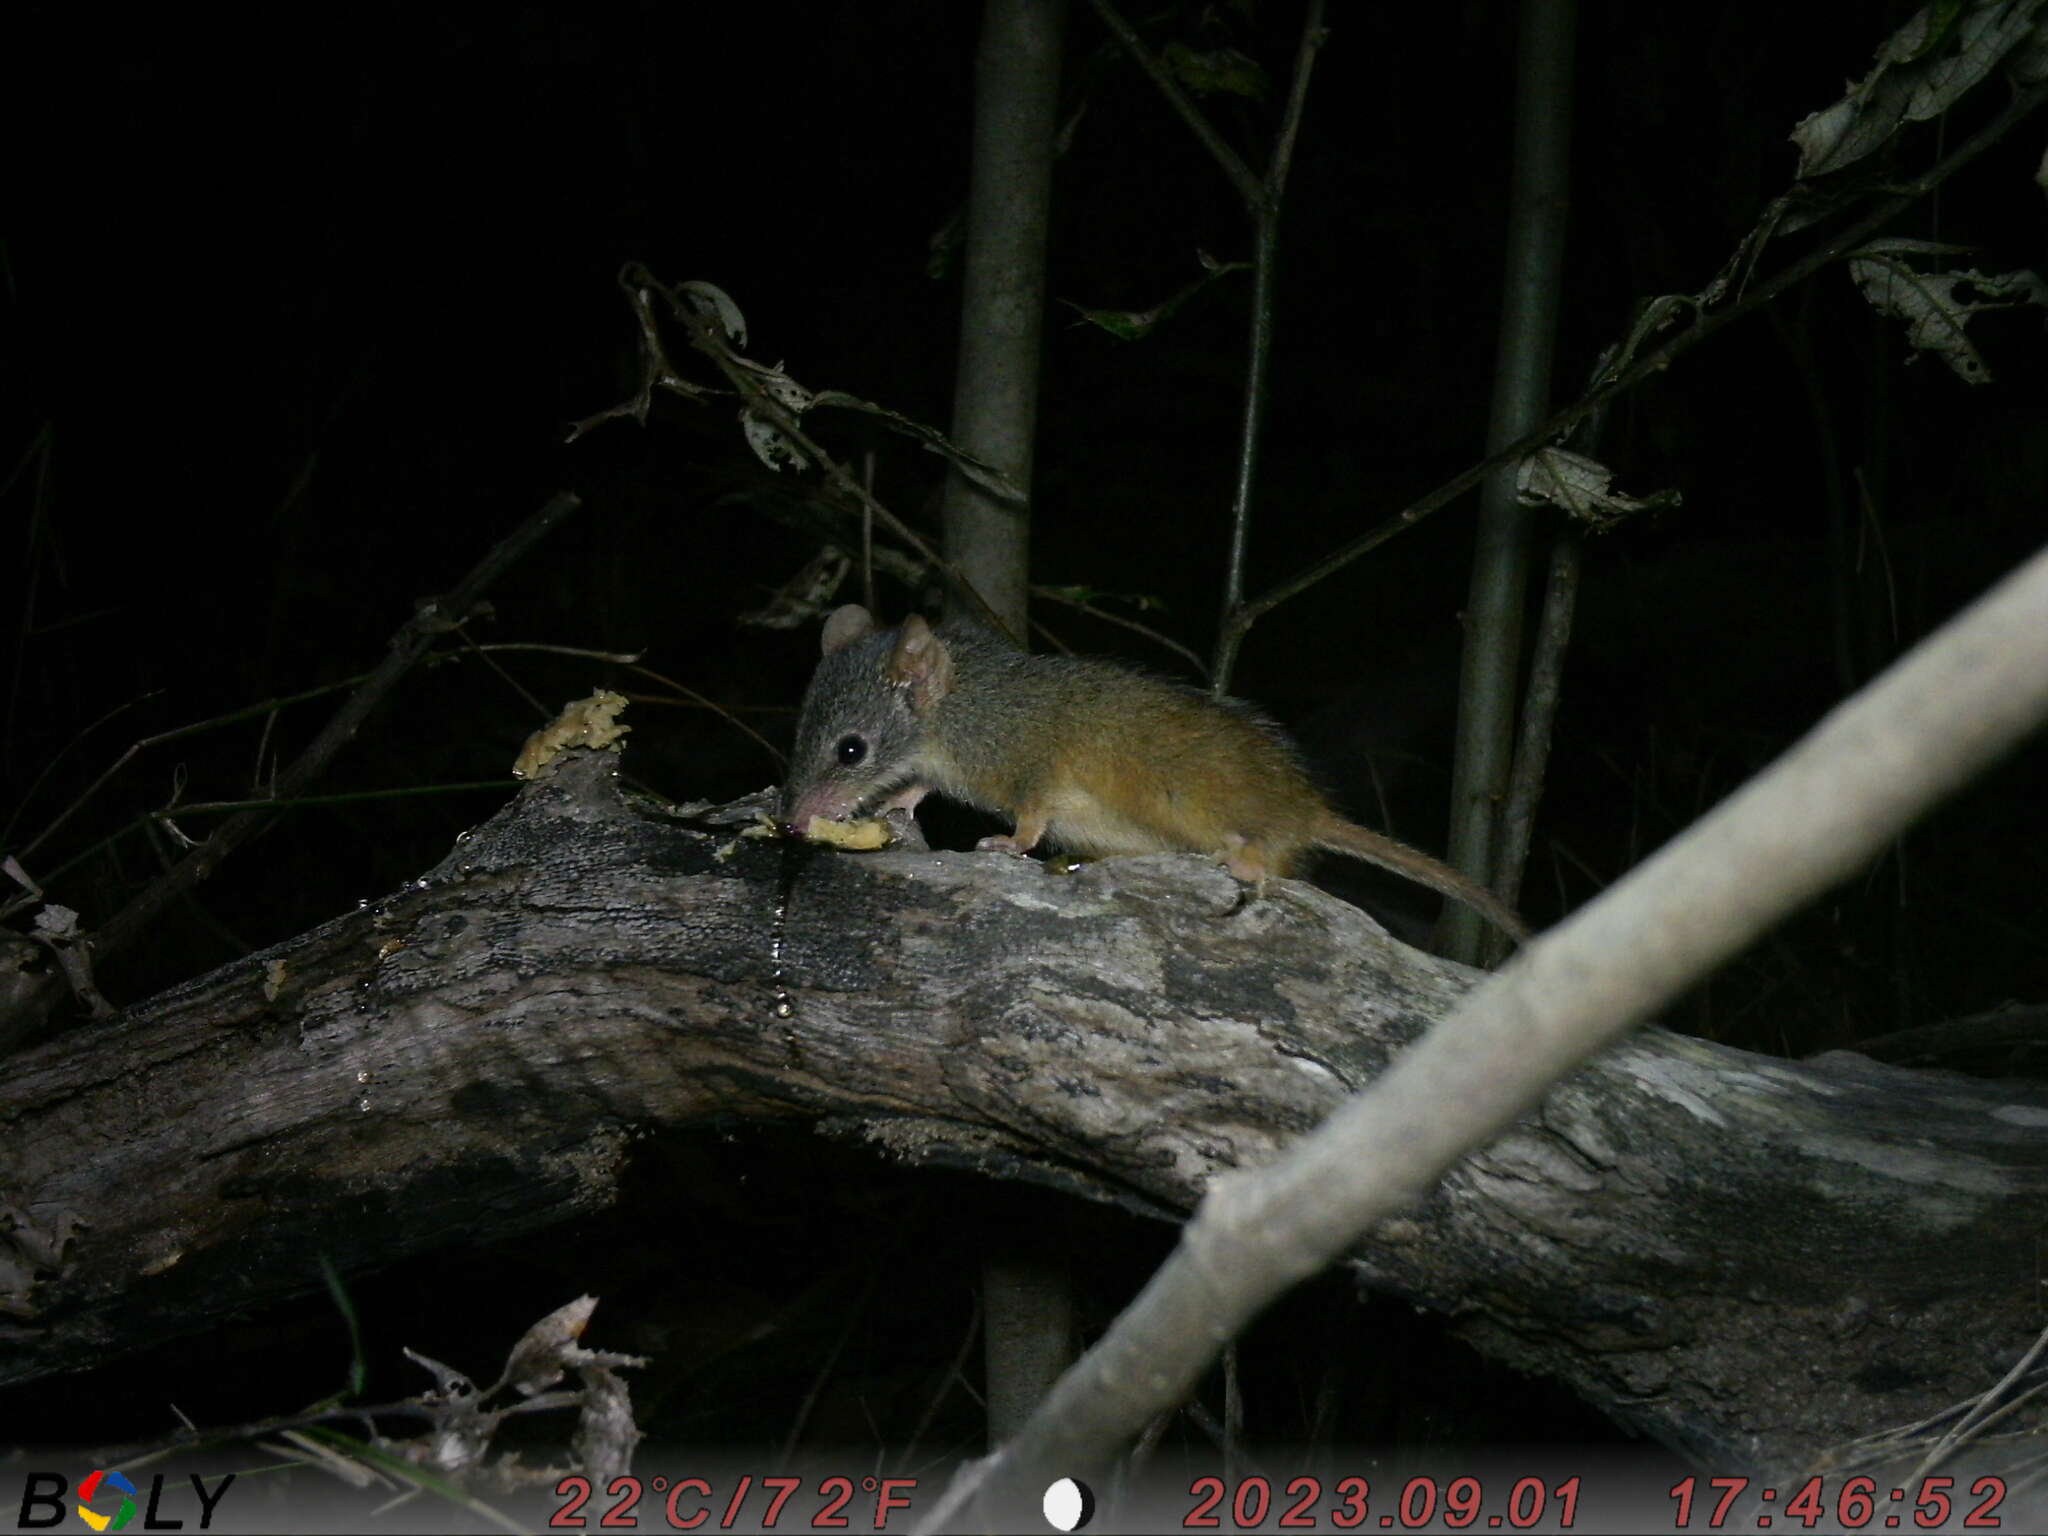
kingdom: Animalia
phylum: Chordata
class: Mammalia
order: Dasyuromorphia
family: Dasyuridae
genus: Antechinus
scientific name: Antechinus flavipes
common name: Yellow-footed antechinus
